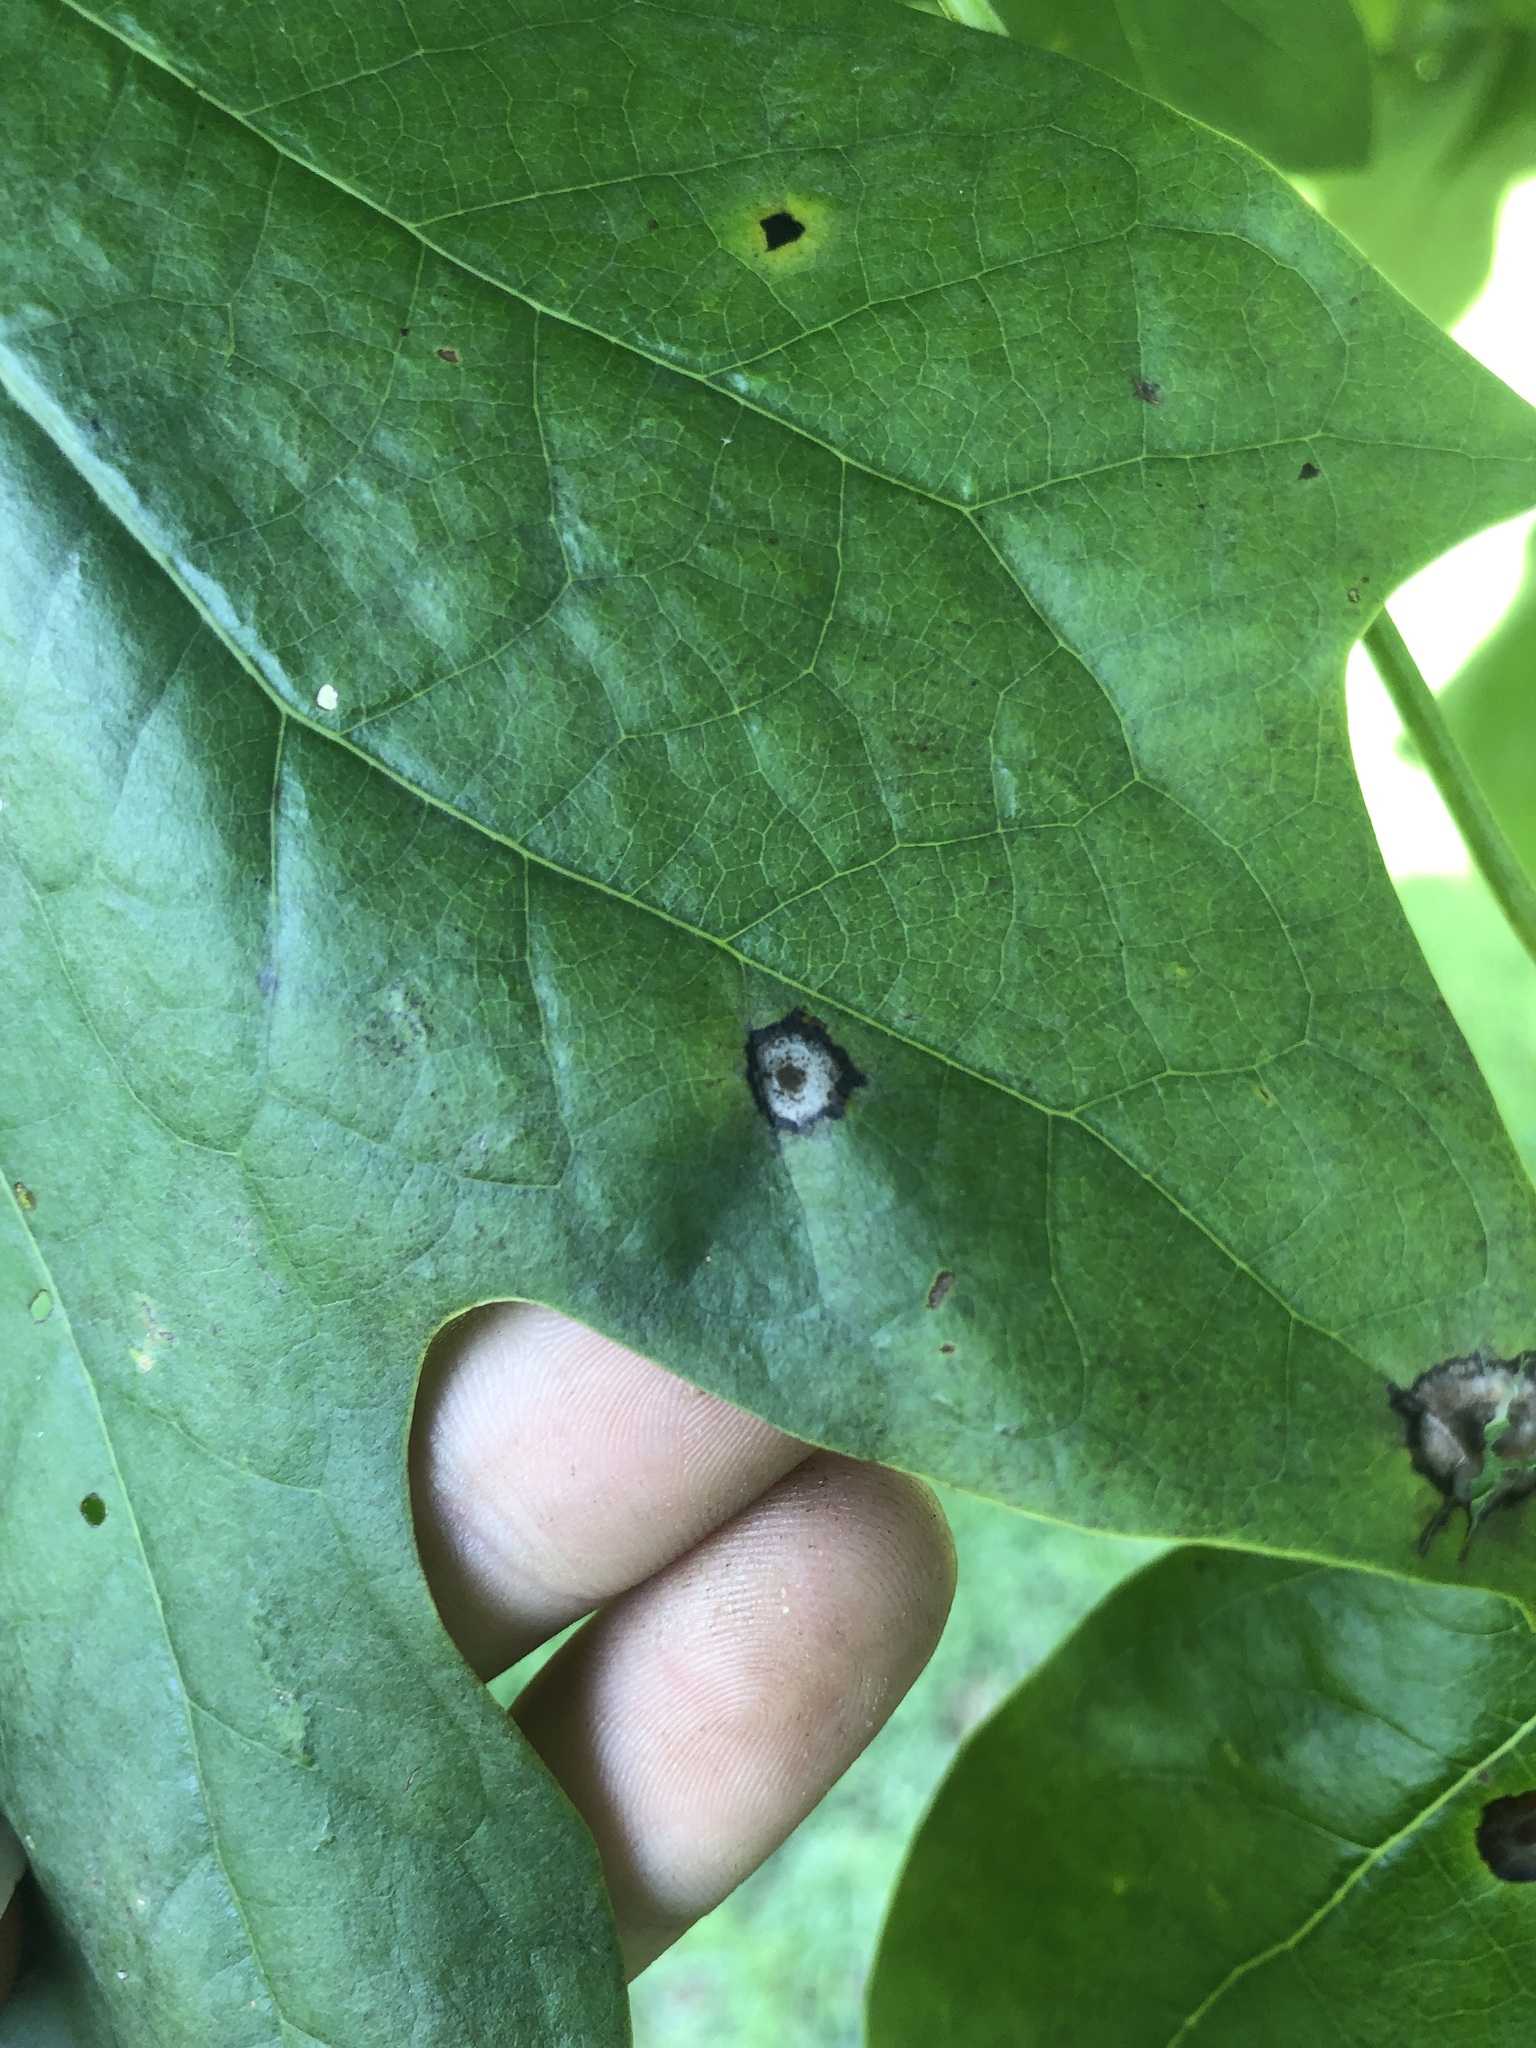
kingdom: Animalia
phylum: Arthropoda
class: Insecta
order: Diptera
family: Cecidomyiidae
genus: Resseliella
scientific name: Resseliella liriodendri
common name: Tulip tree leaf spot gall midge
